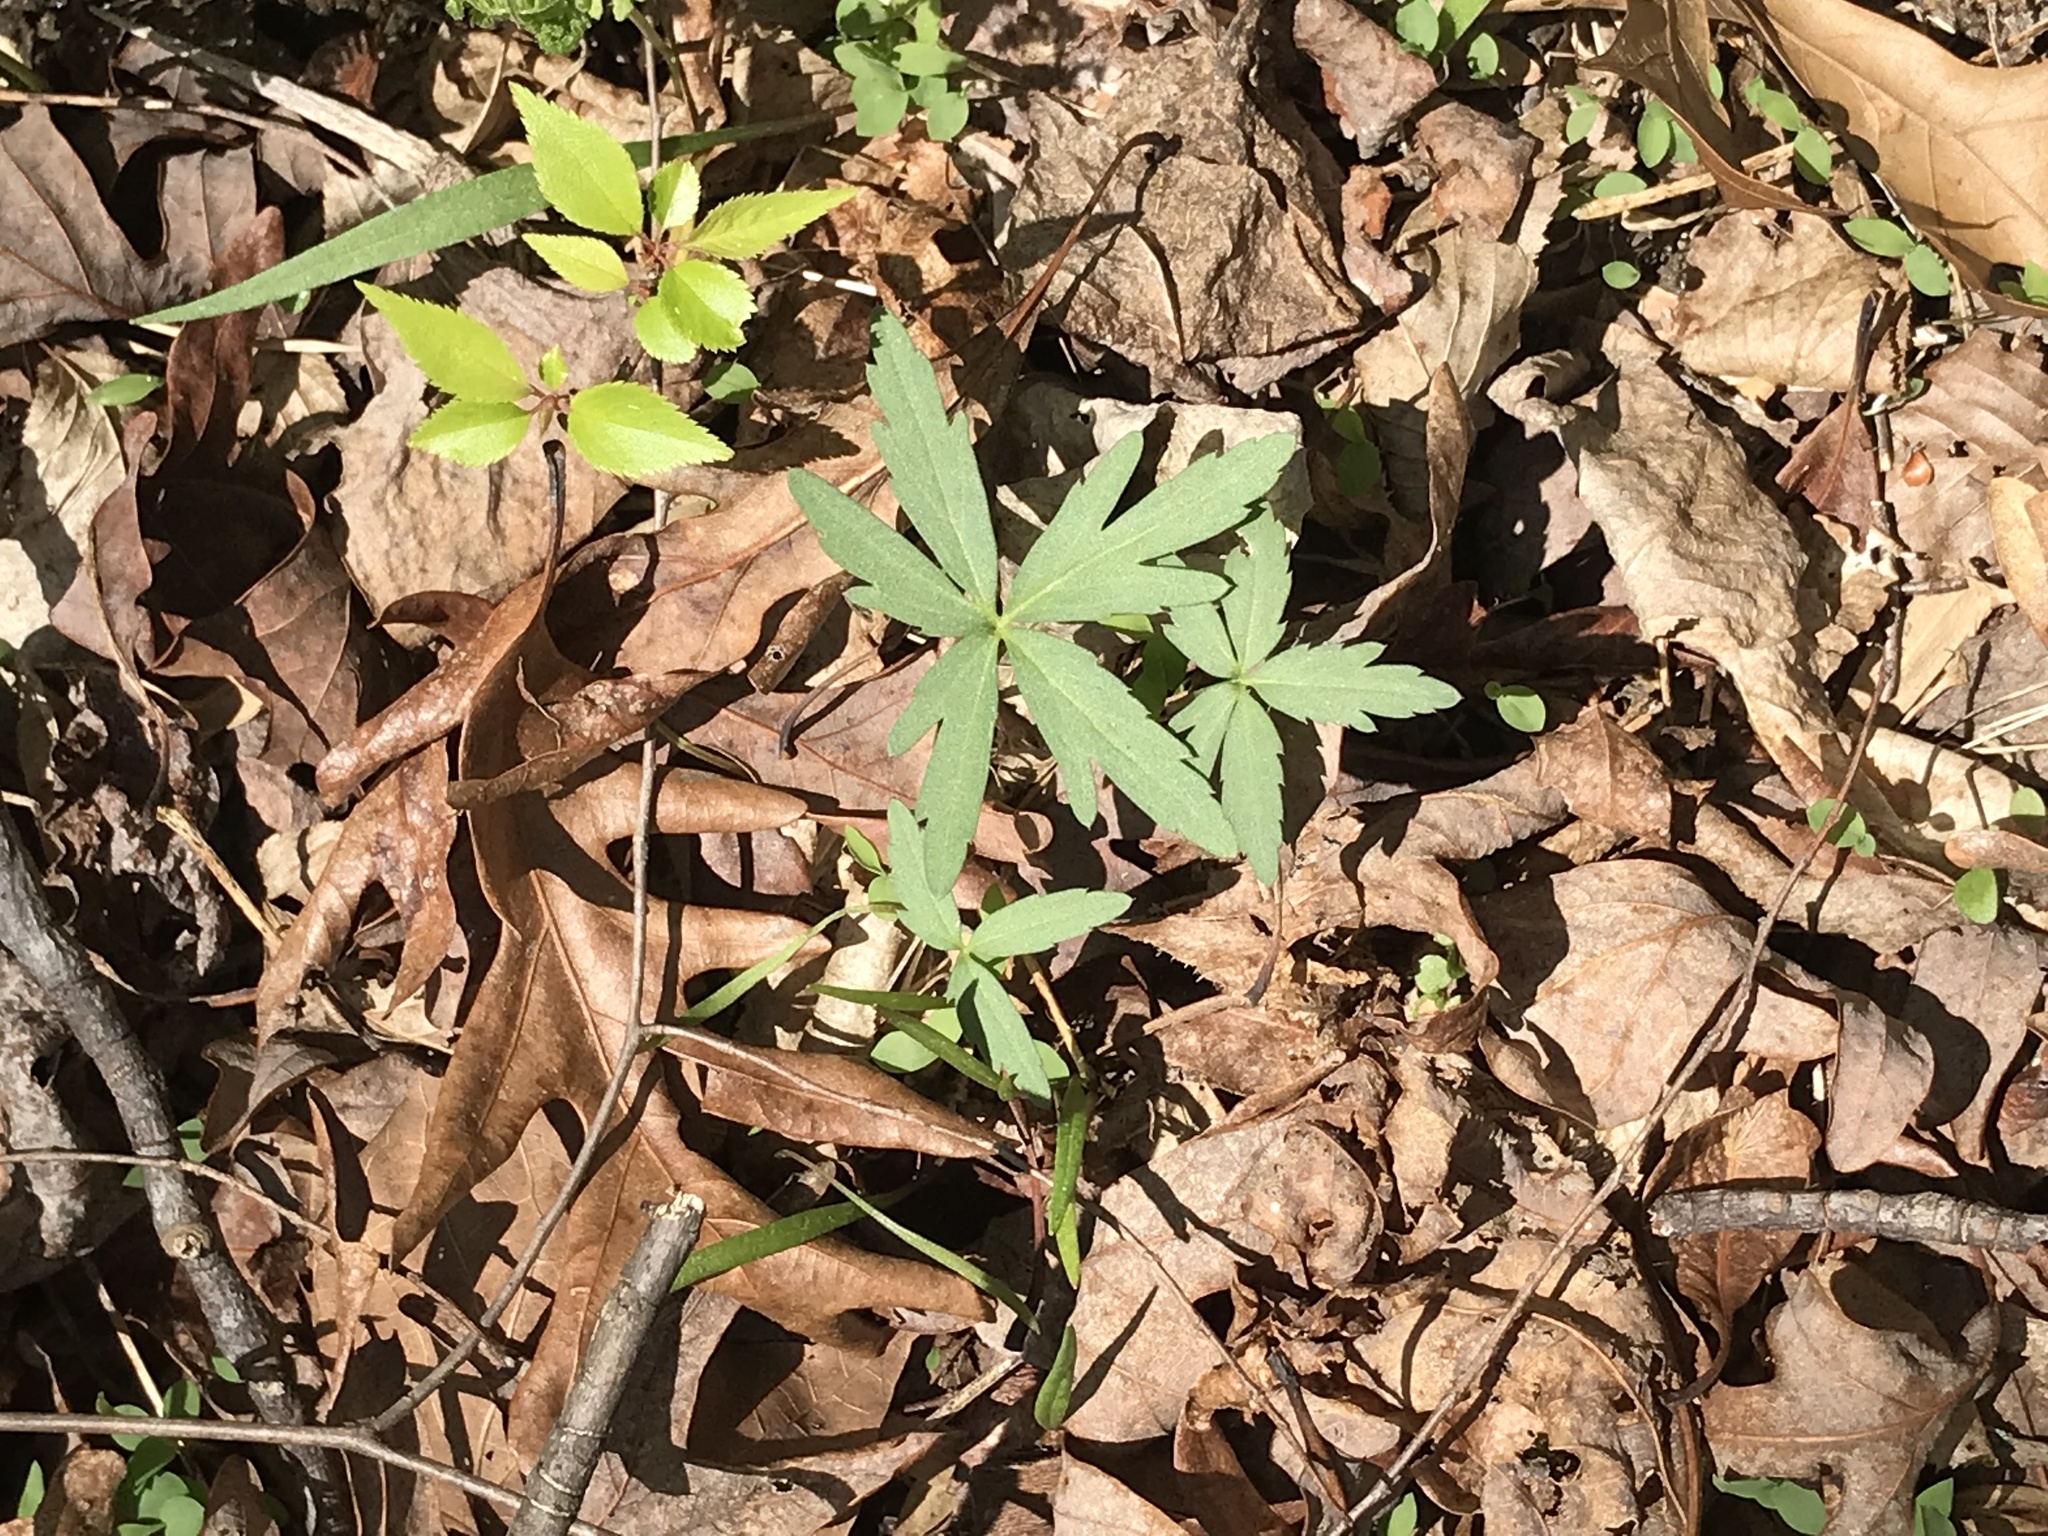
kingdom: Plantae
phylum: Tracheophyta
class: Magnoliopsida
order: Brassicales
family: Brassicaceae
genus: Cardamine
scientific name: Cardamine concatenata
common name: Cut-leaf toothcup
